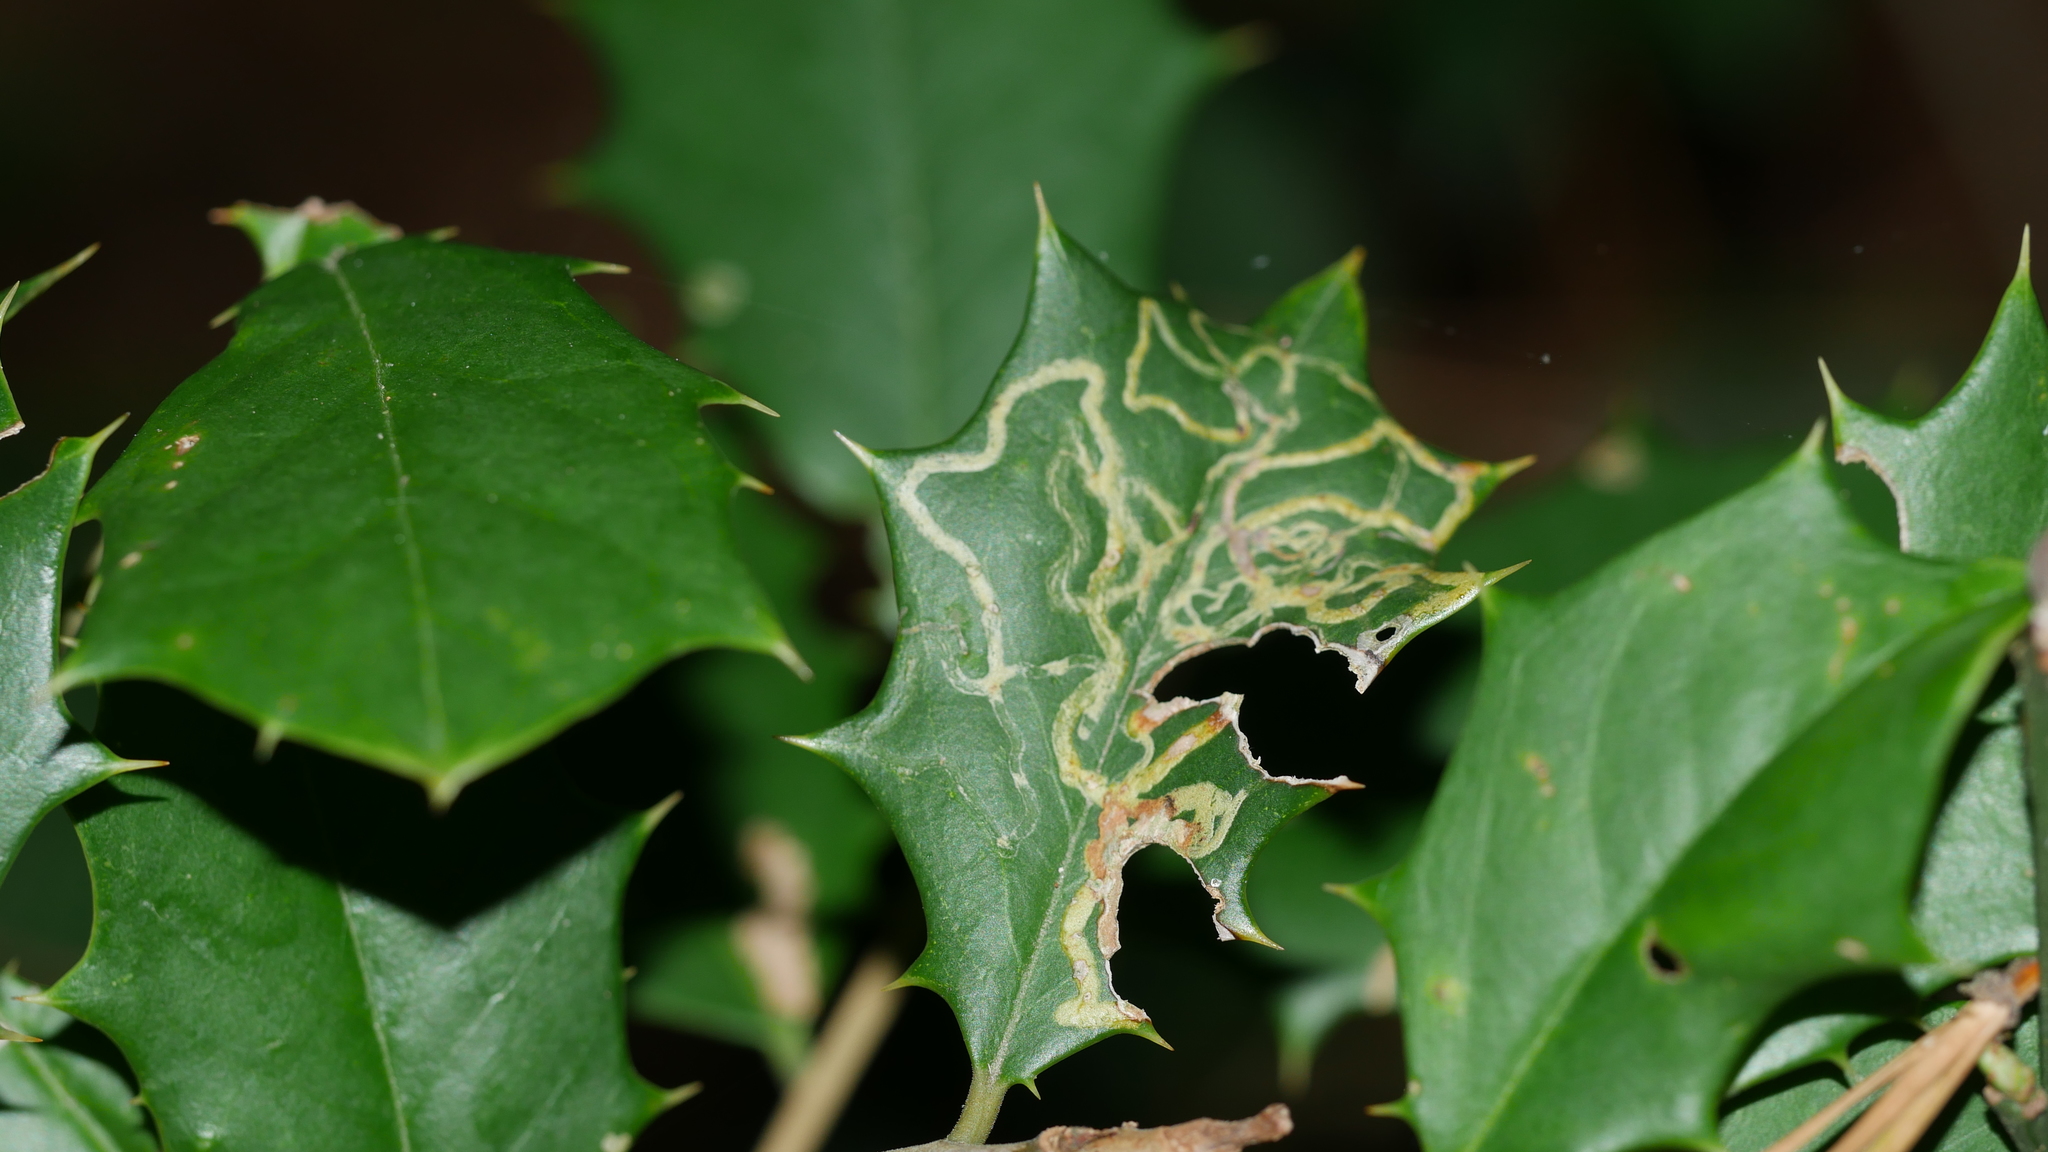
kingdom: Animalia
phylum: Arthropoda
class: Insecta
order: Diptera
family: Agromyzidae
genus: Phytomyza
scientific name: Phytomyza opacae
